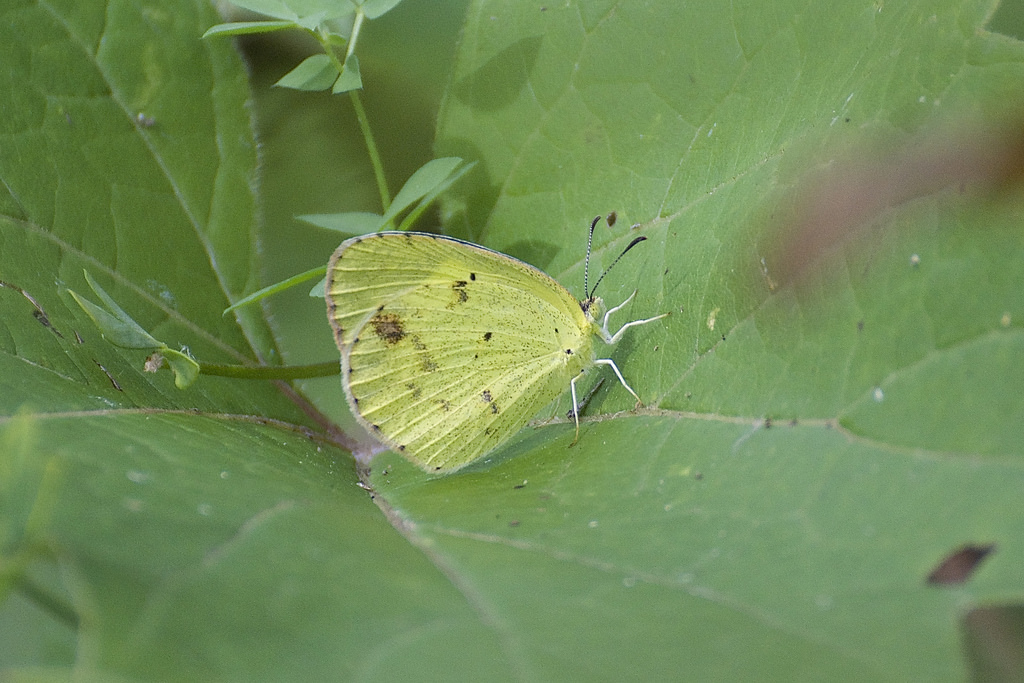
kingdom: Animalia
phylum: Arthropoda
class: Insecta
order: Lepidoptera
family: Pieridae
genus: Pyrisitia
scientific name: Pyrisitia lisa
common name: Little yellow
